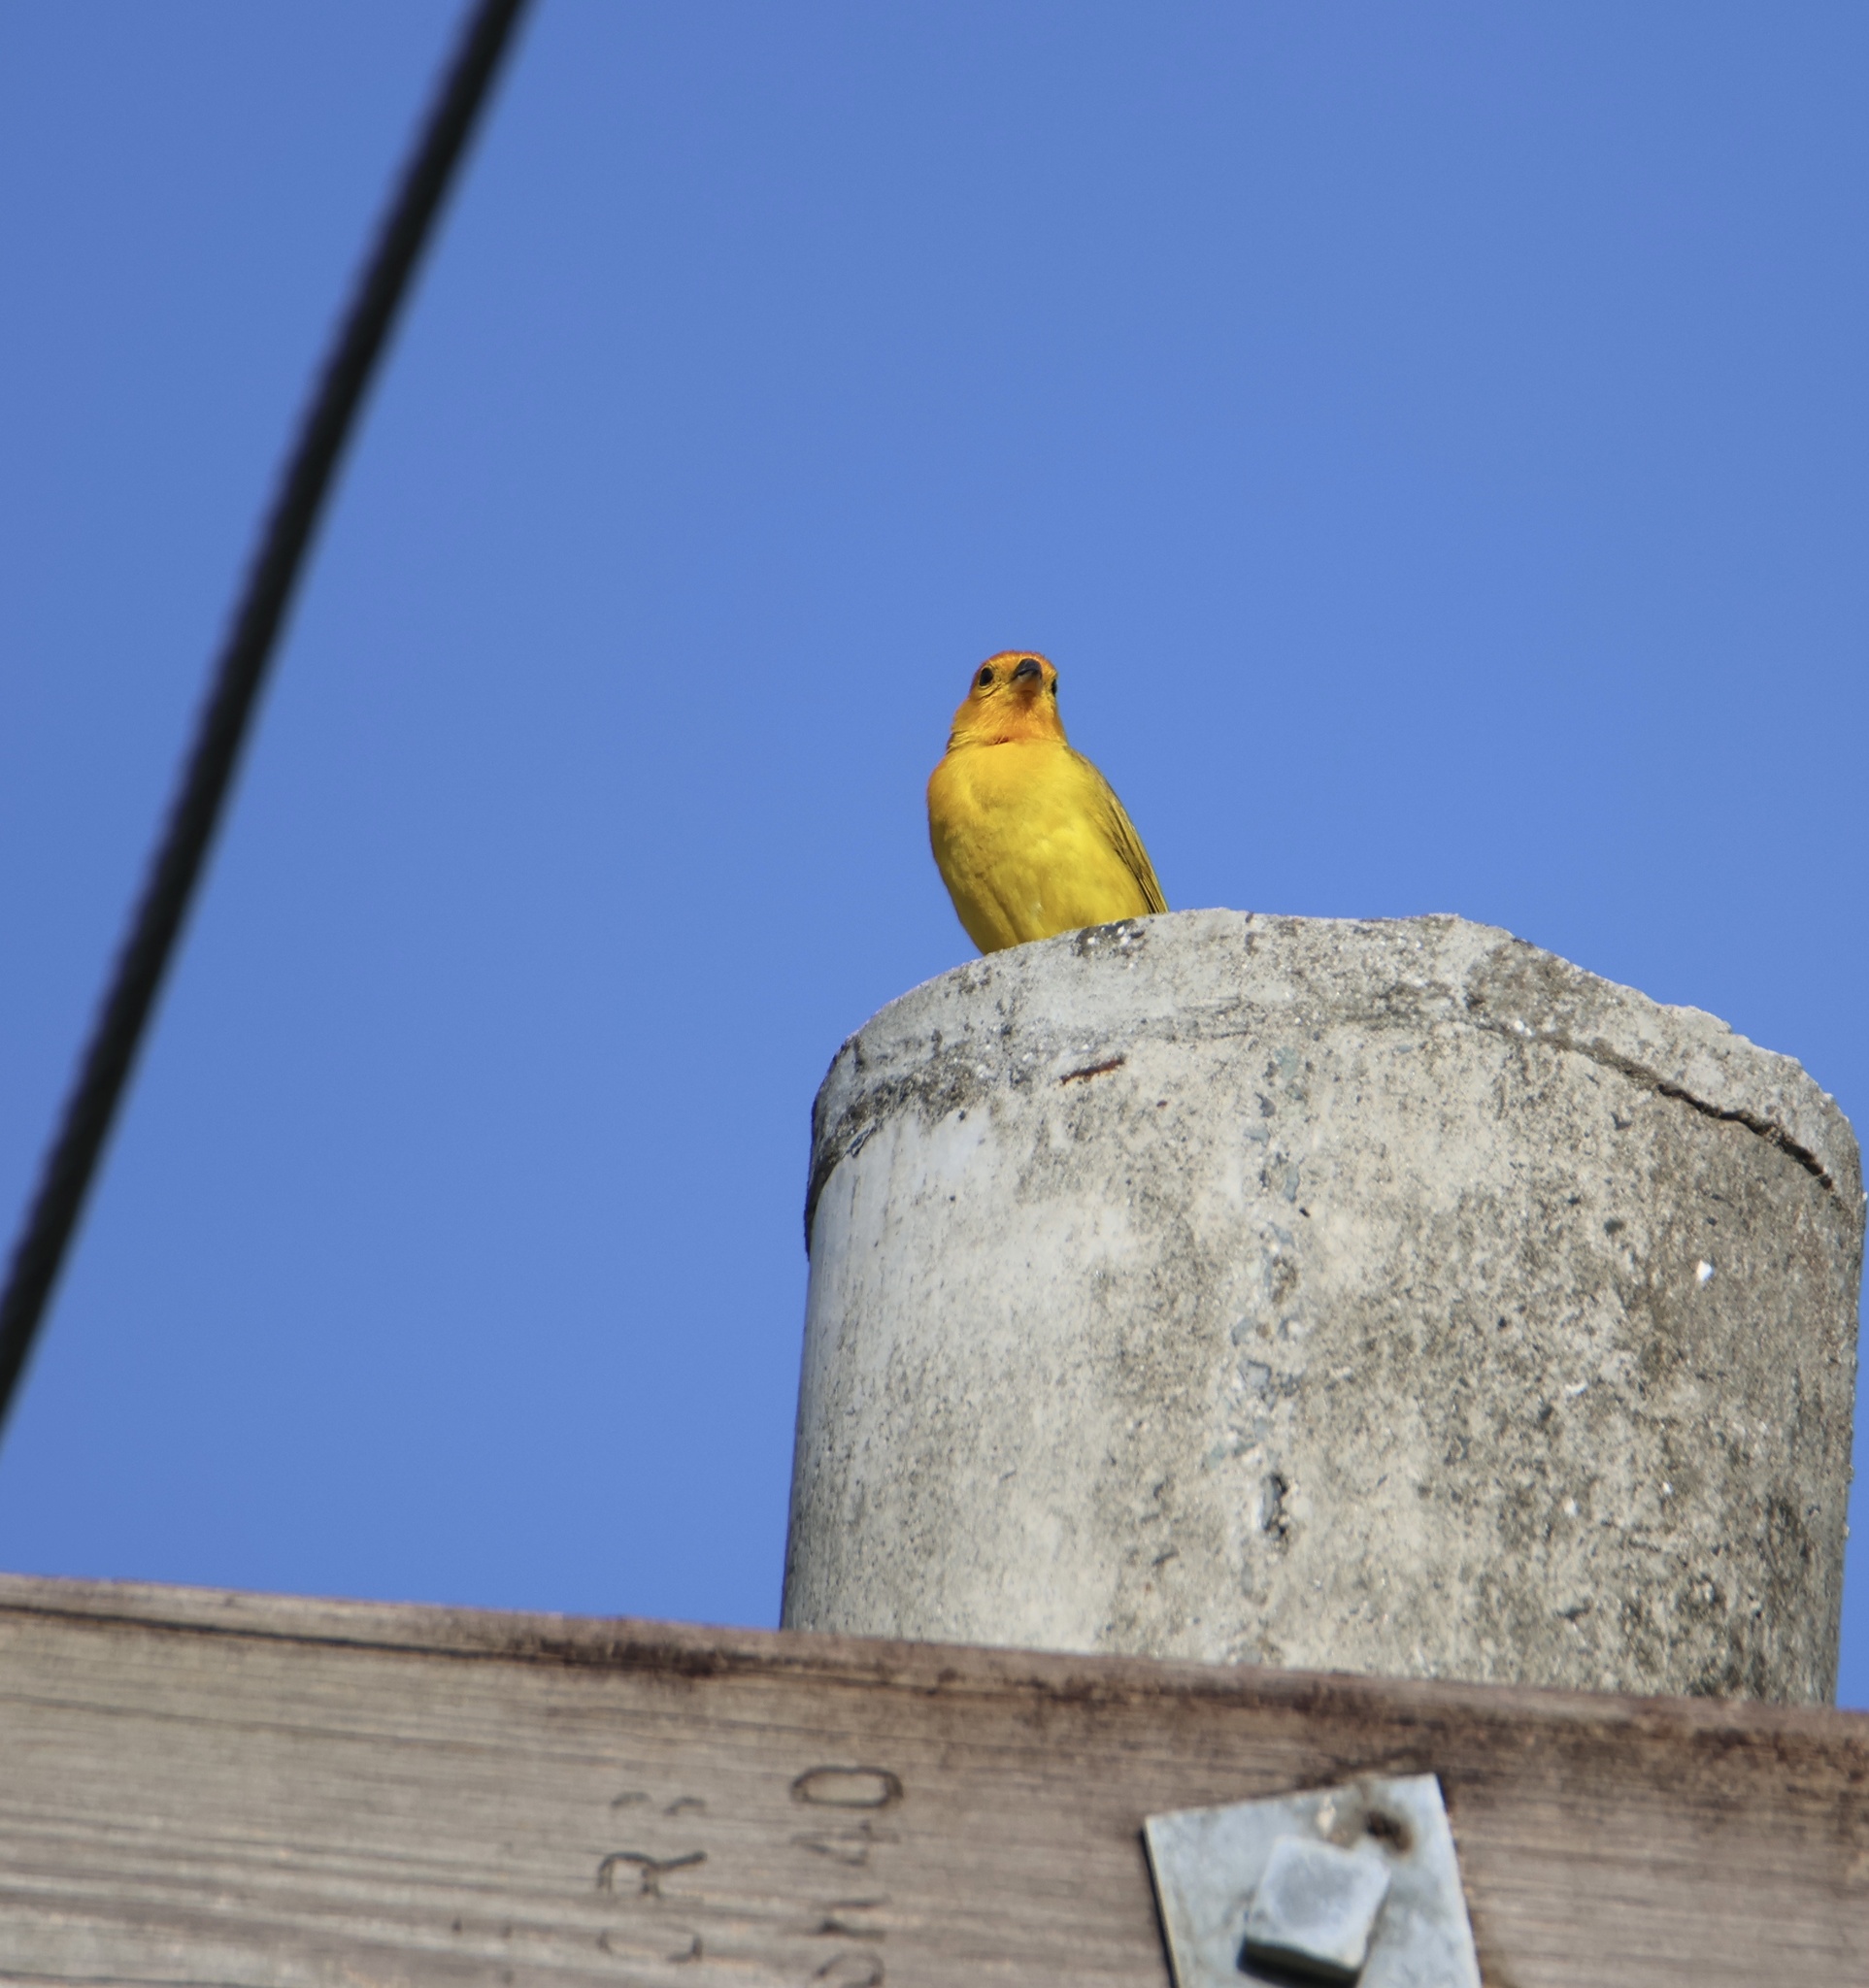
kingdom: Animalia
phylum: Chordata
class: Aves
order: Passeriformes
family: Thraupidae
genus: Sicalis
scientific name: Sicalis flaveola
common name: Saffron finch
